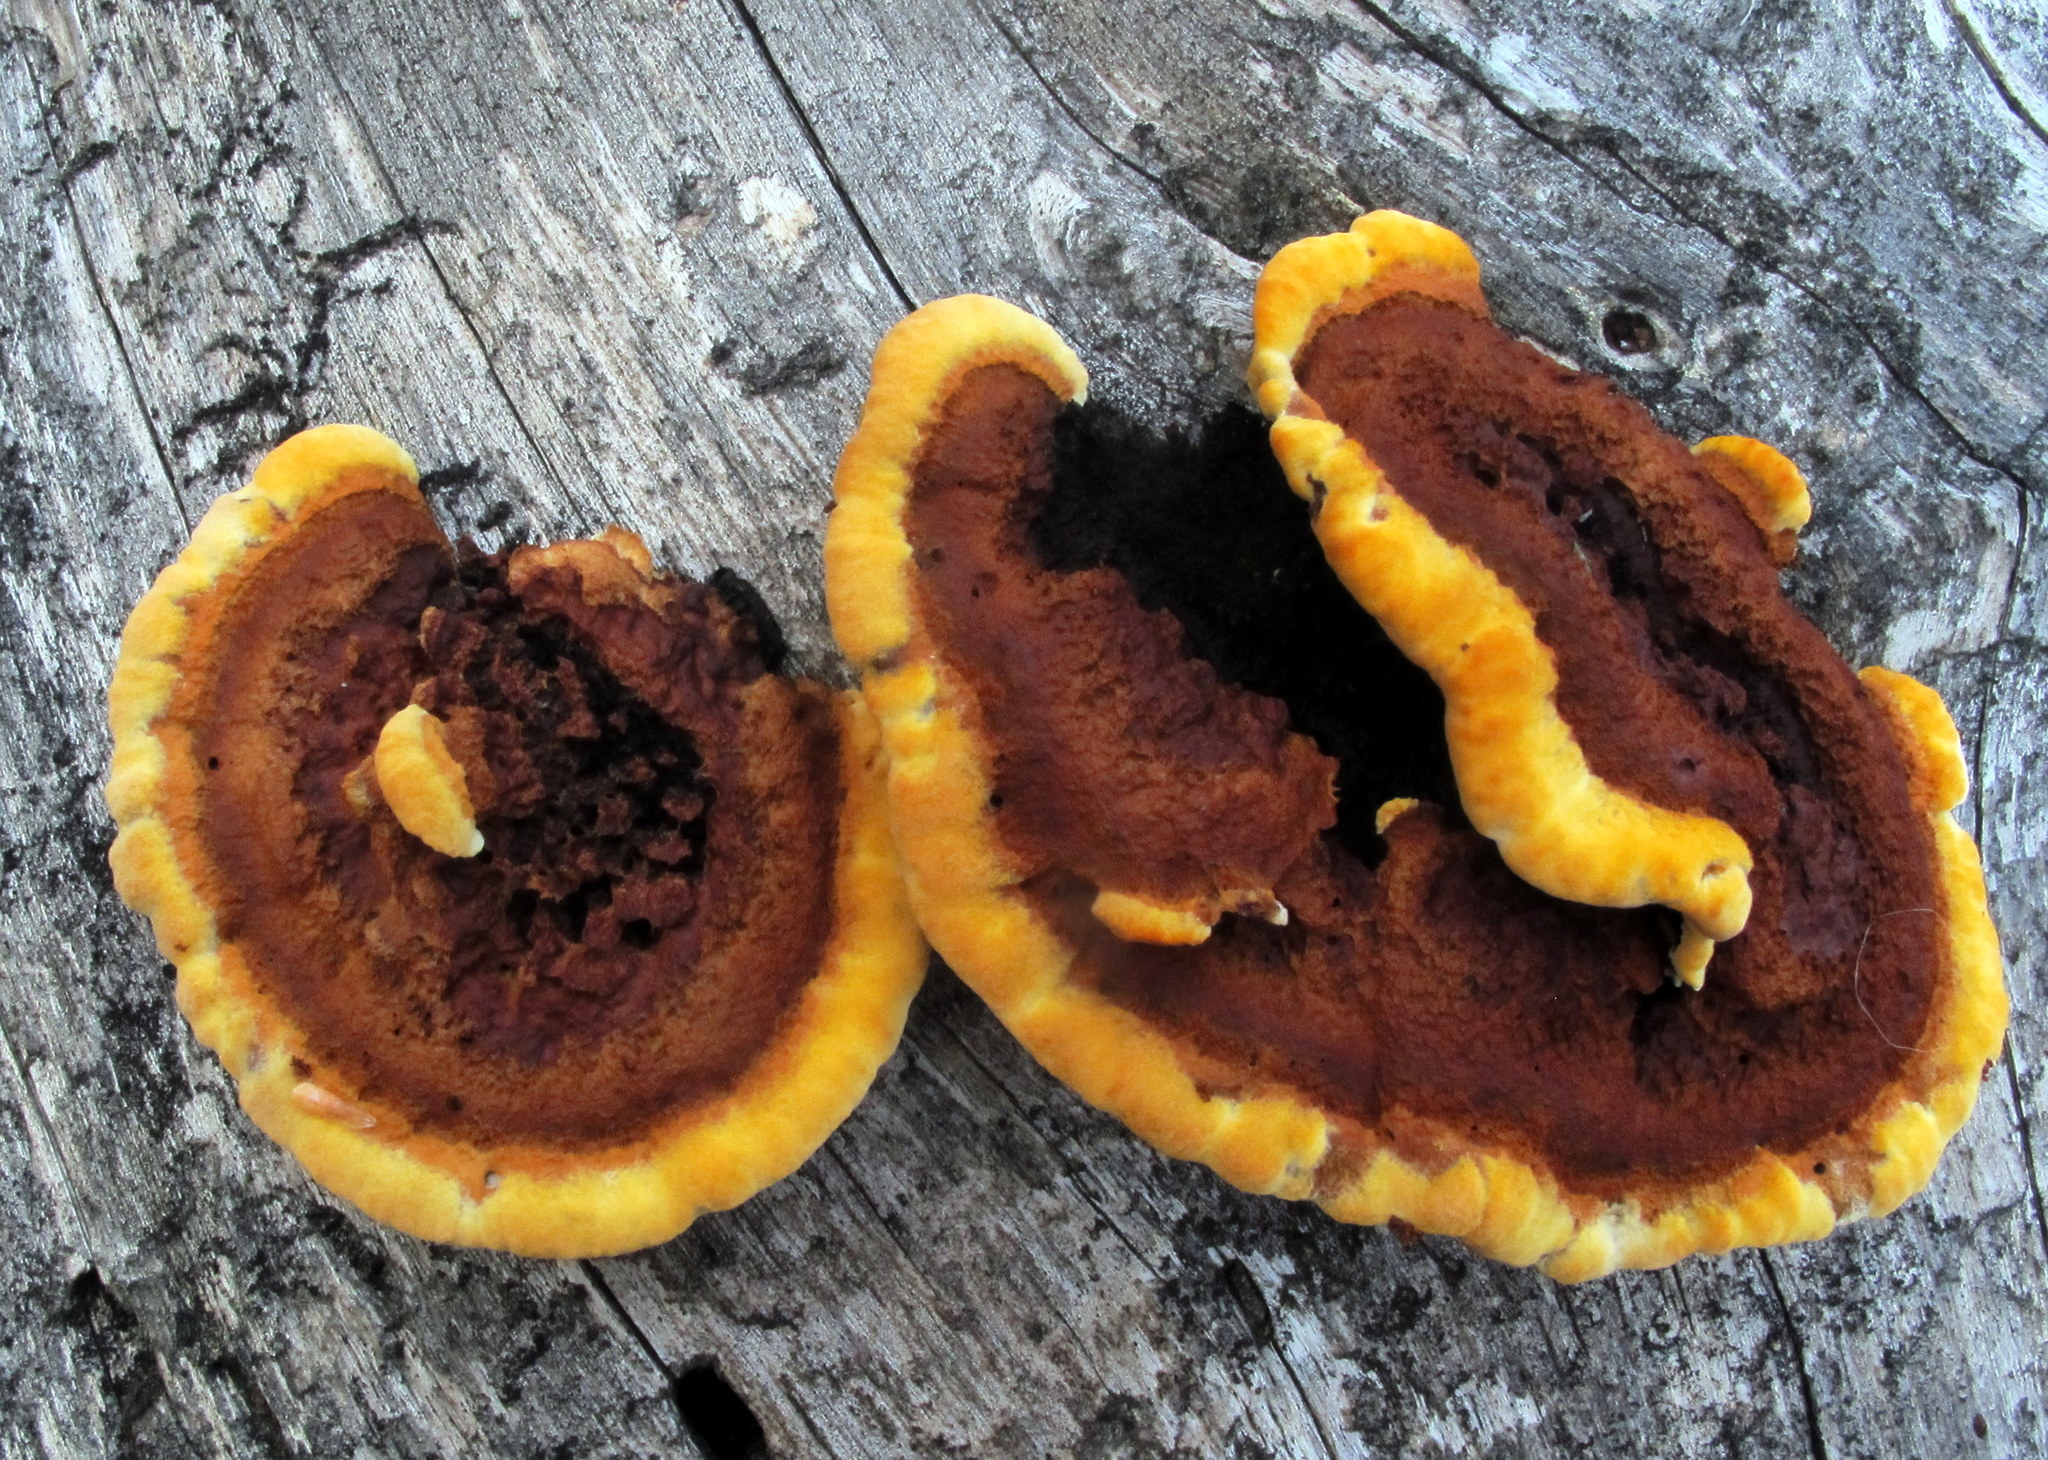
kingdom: Fungi
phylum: Basidiomycota
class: Agaricomycetes
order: Gloeophyllales
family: Gloeophyllaceae
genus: Gloeophyllum
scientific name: Gloeophyllum sepiarium
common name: Conifer mazegill
